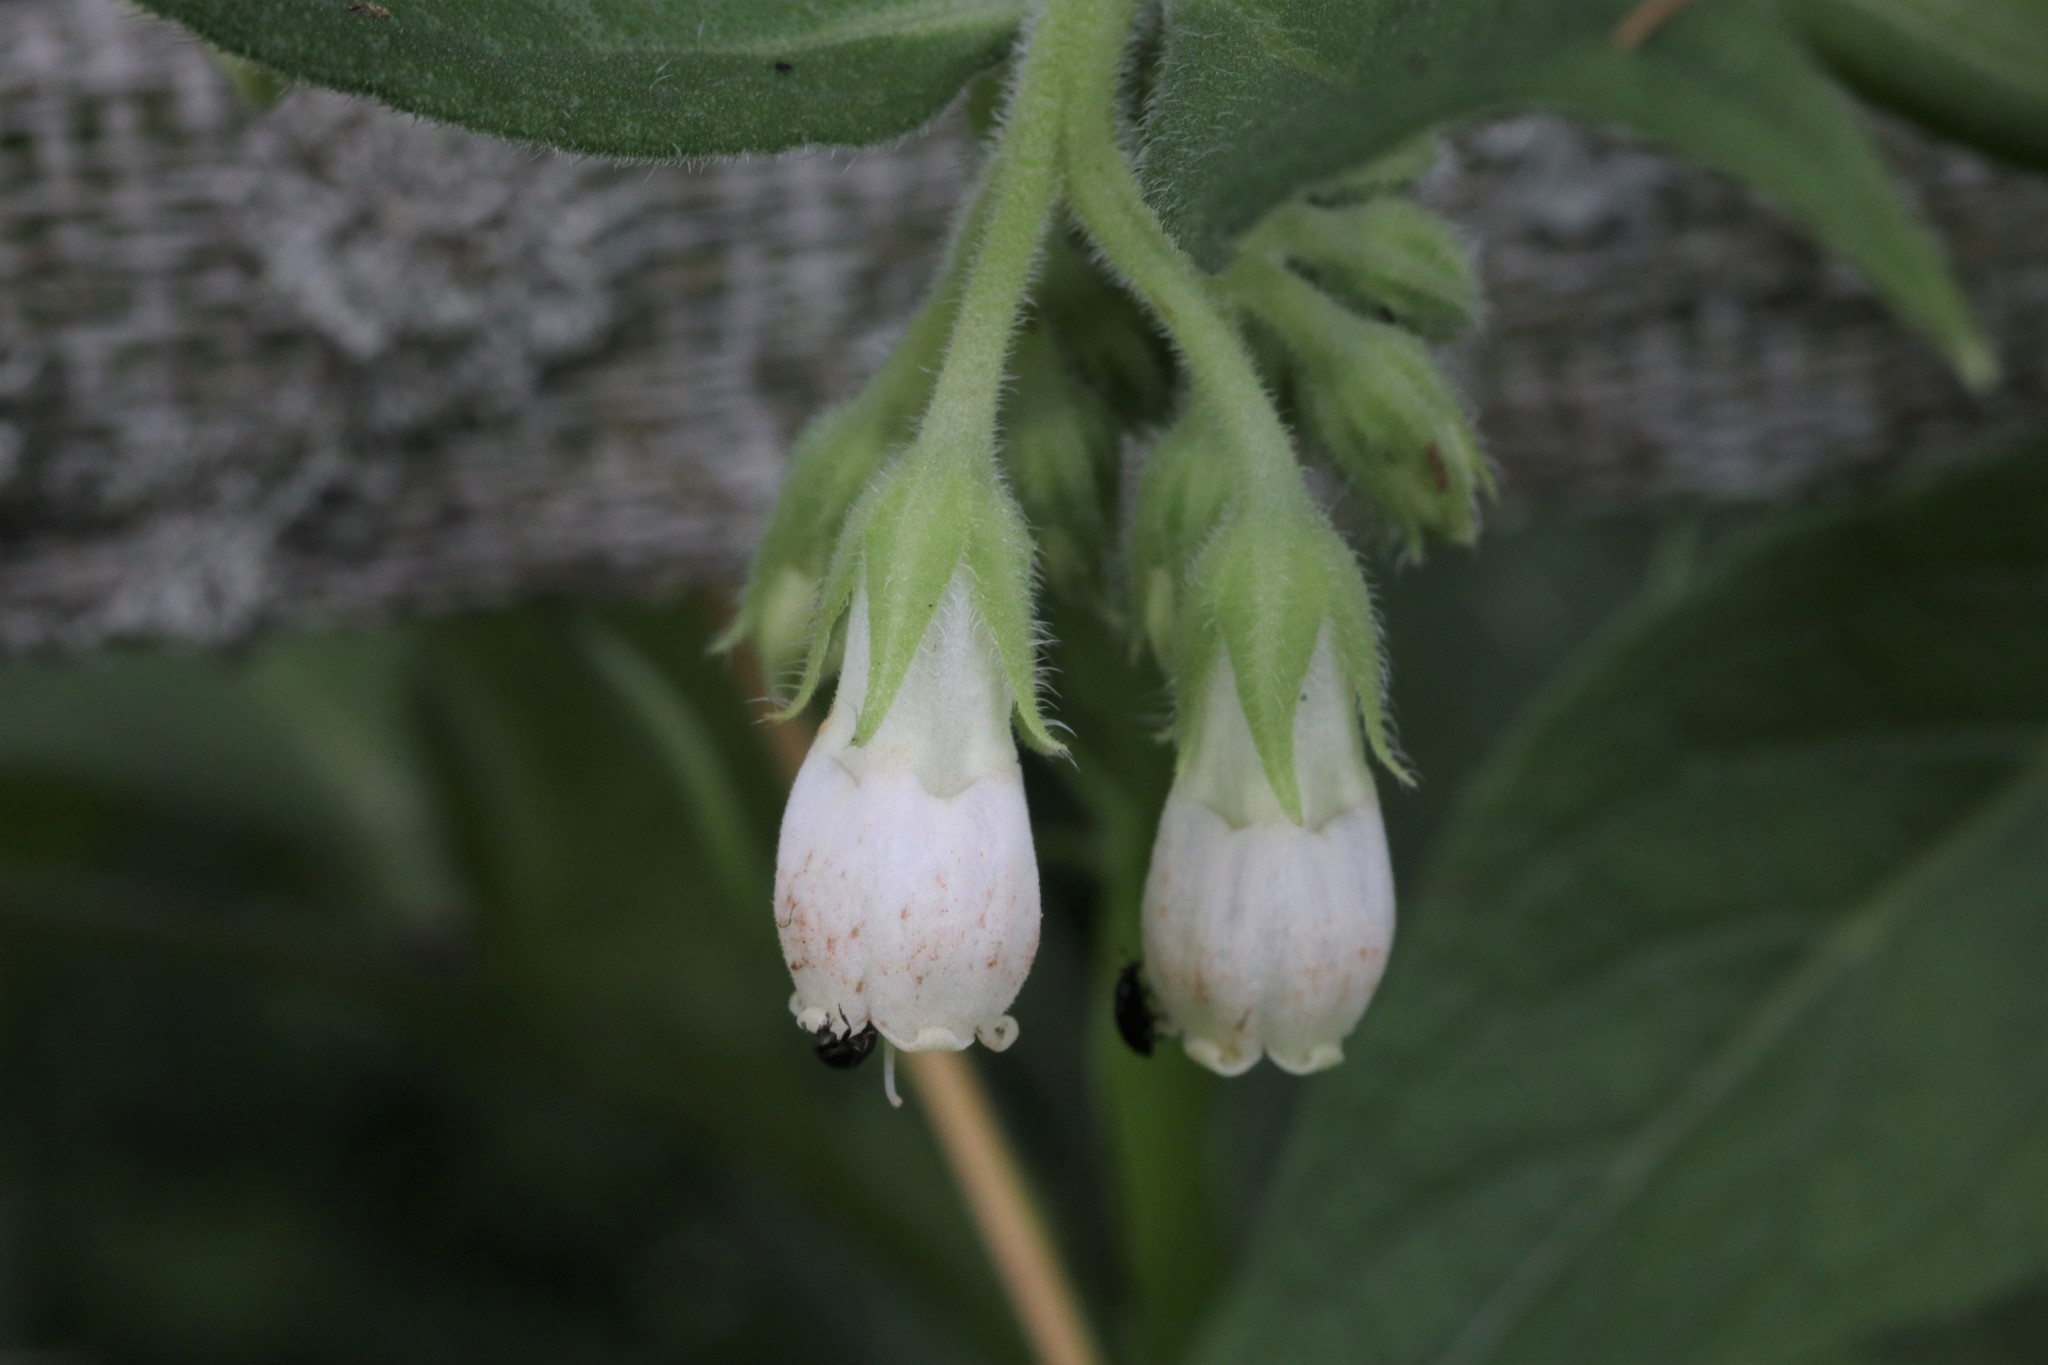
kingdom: Plantae
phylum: Tracheophyta
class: Magnoliopsida
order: Boraginales
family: Boraginaceae
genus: Symphytum
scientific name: Symphytum officinale
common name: Common comfrey
